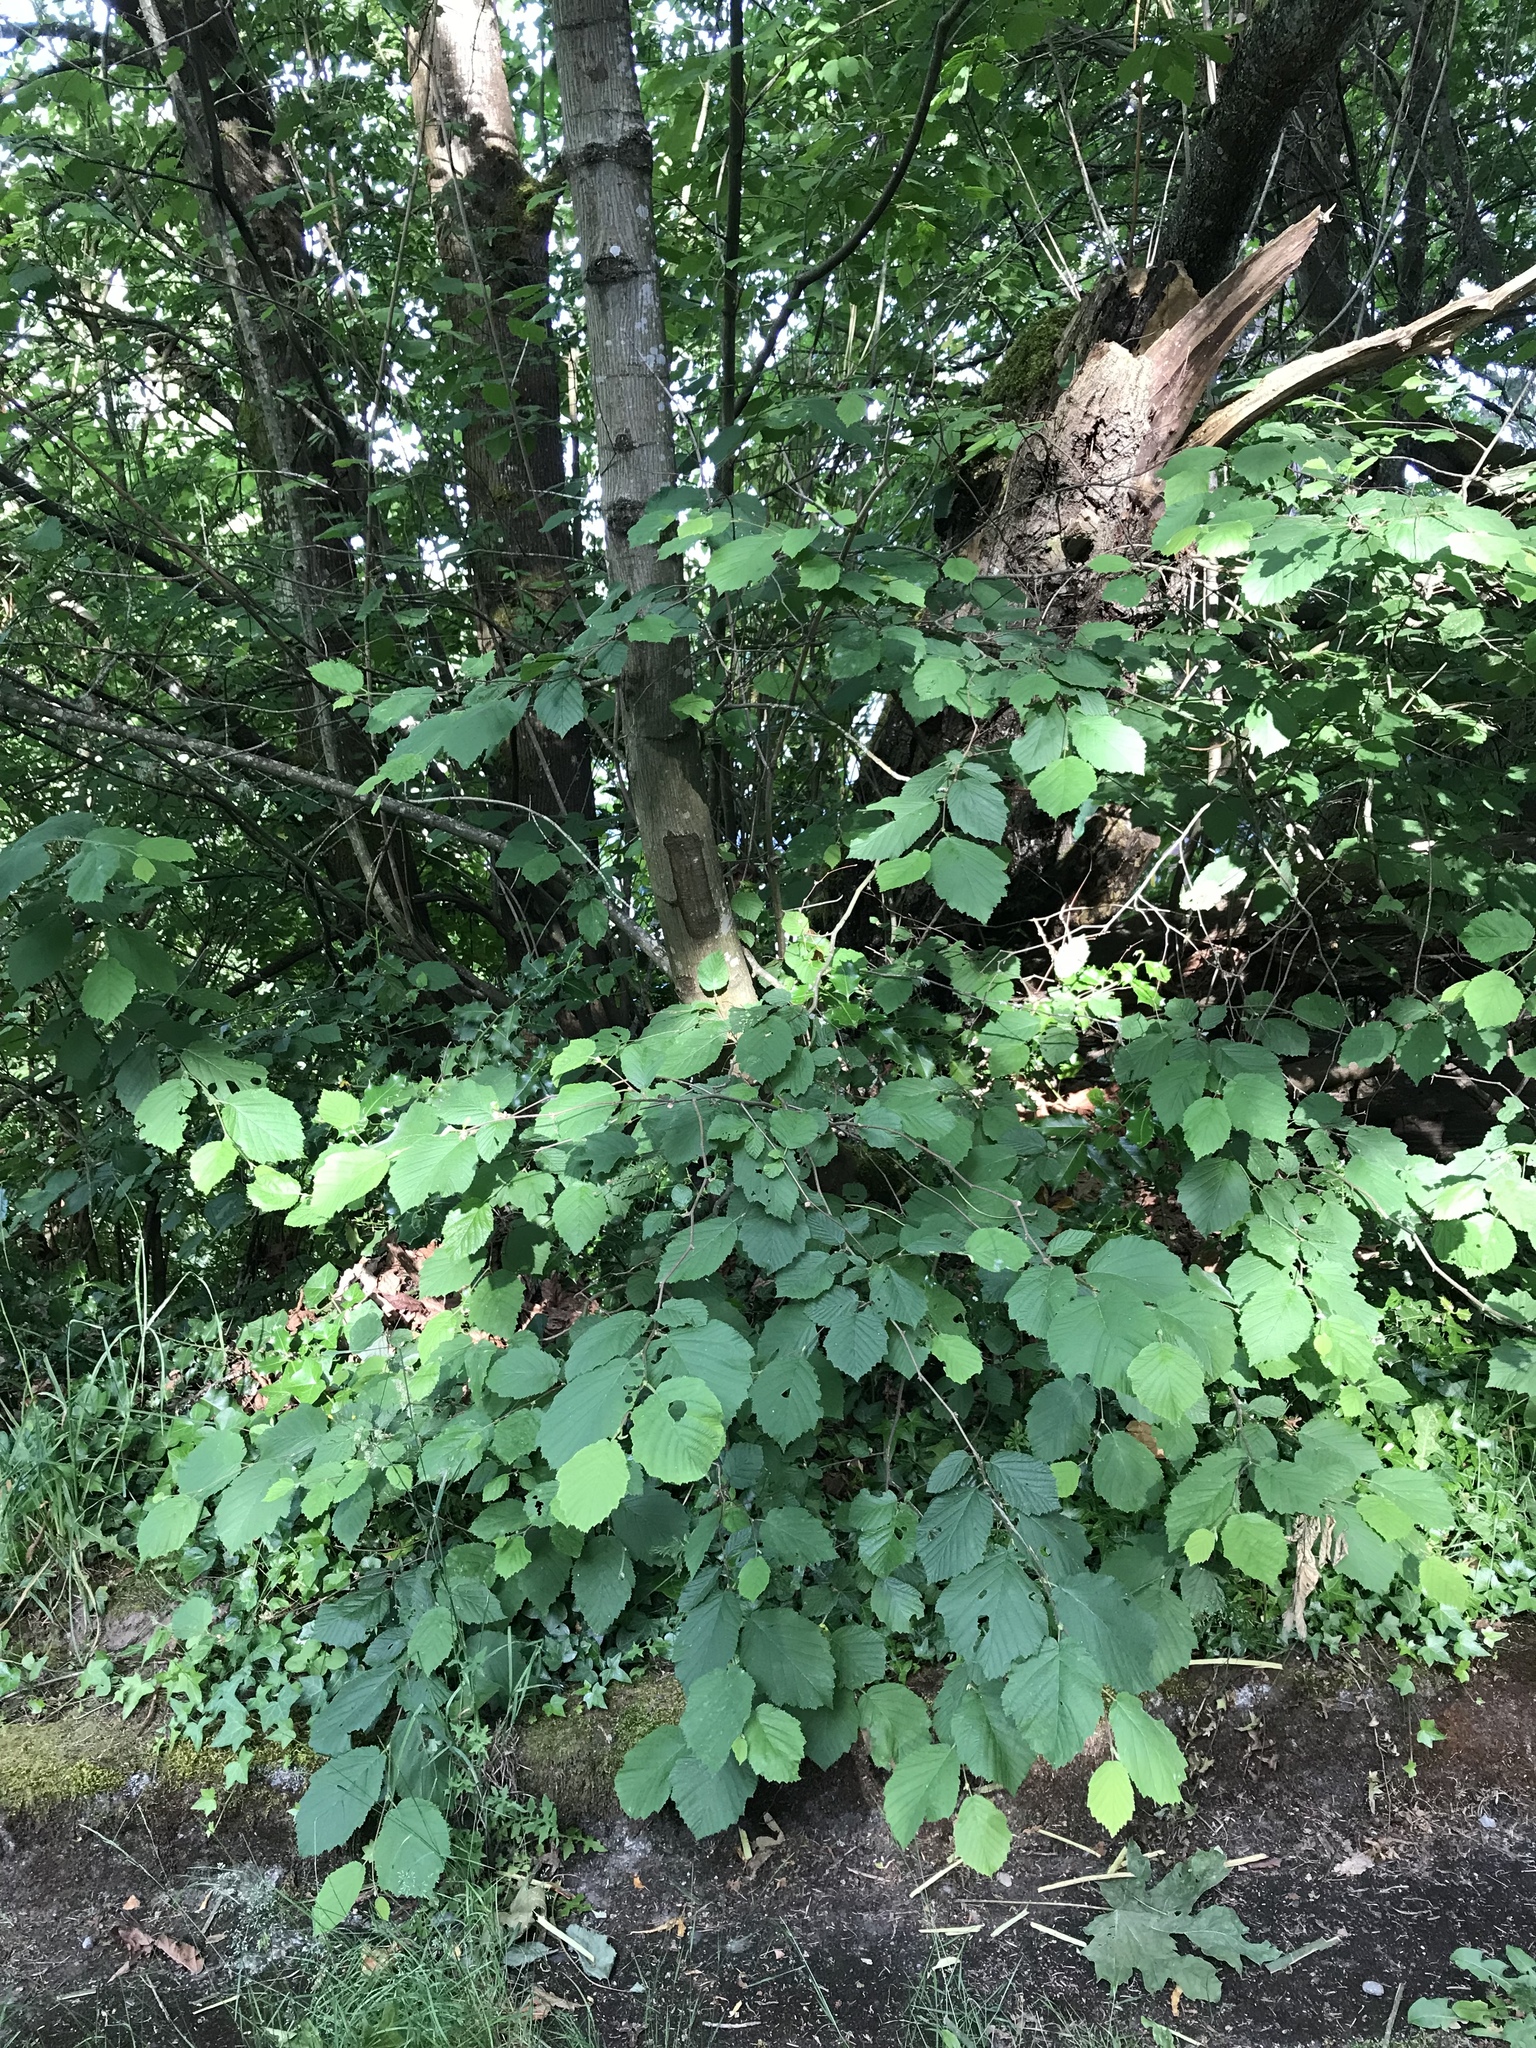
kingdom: Plantae
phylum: Tracheophyta
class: Magnoliopsida
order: Fagales
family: Betulaceae
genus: Corylus
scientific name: Corylus cornuta
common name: Beaked hazel
